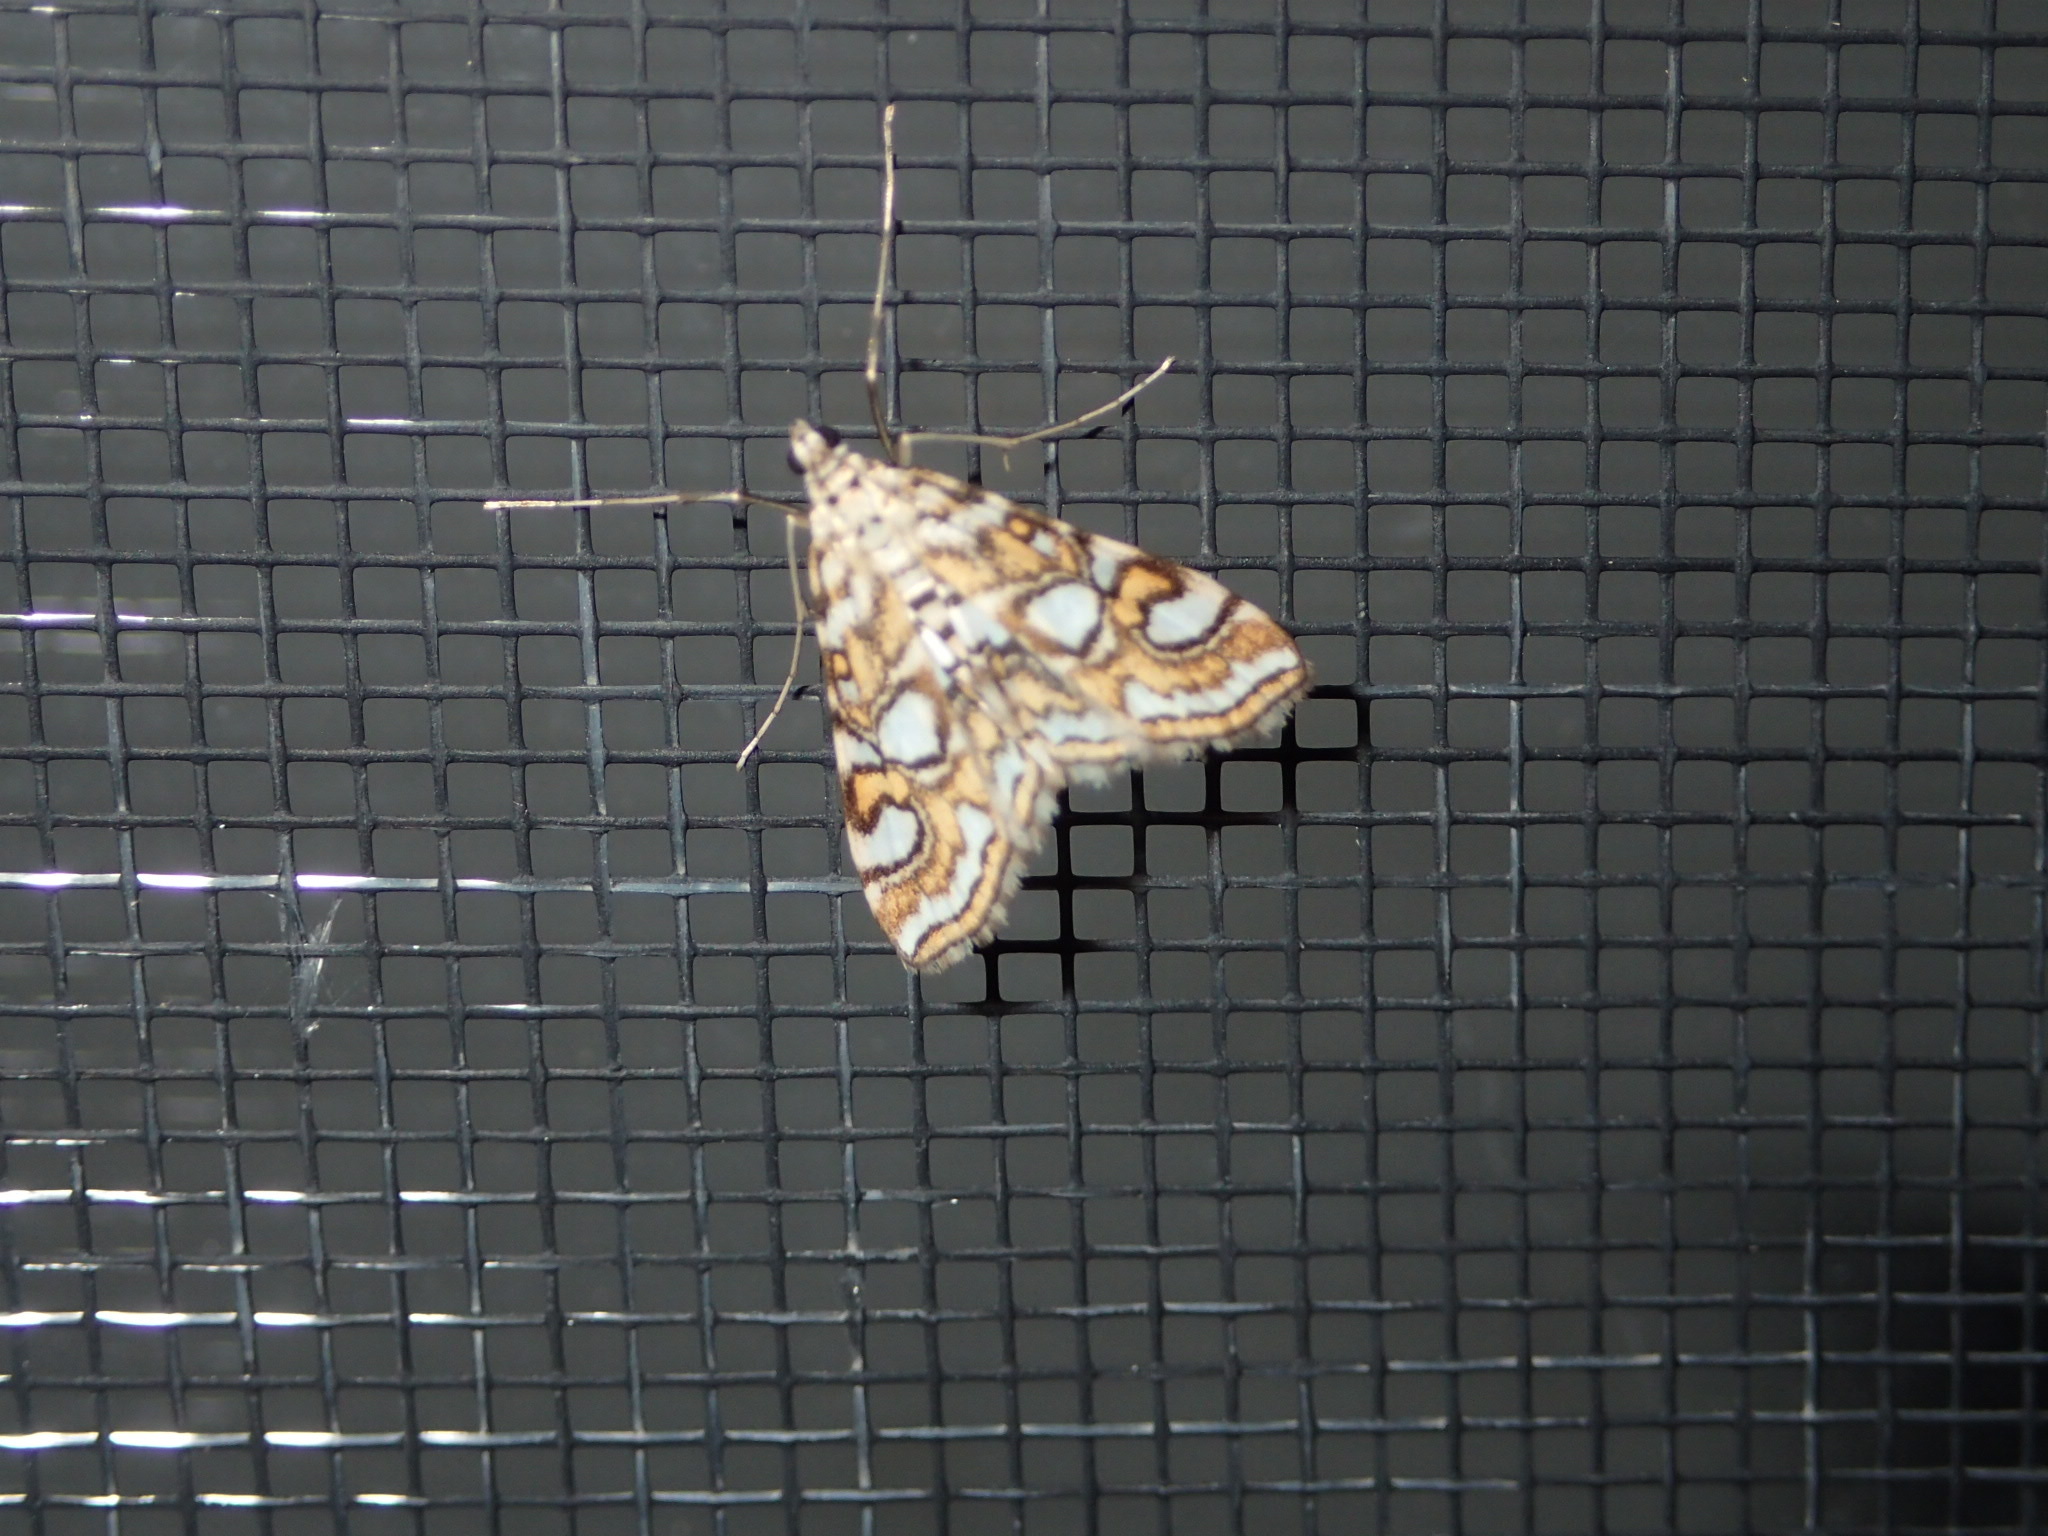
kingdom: Animalia
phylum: Arthropoda
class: Insecta
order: Lepidoptera
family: Crambidae
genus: Elophila
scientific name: Elophila ekthlipsis
